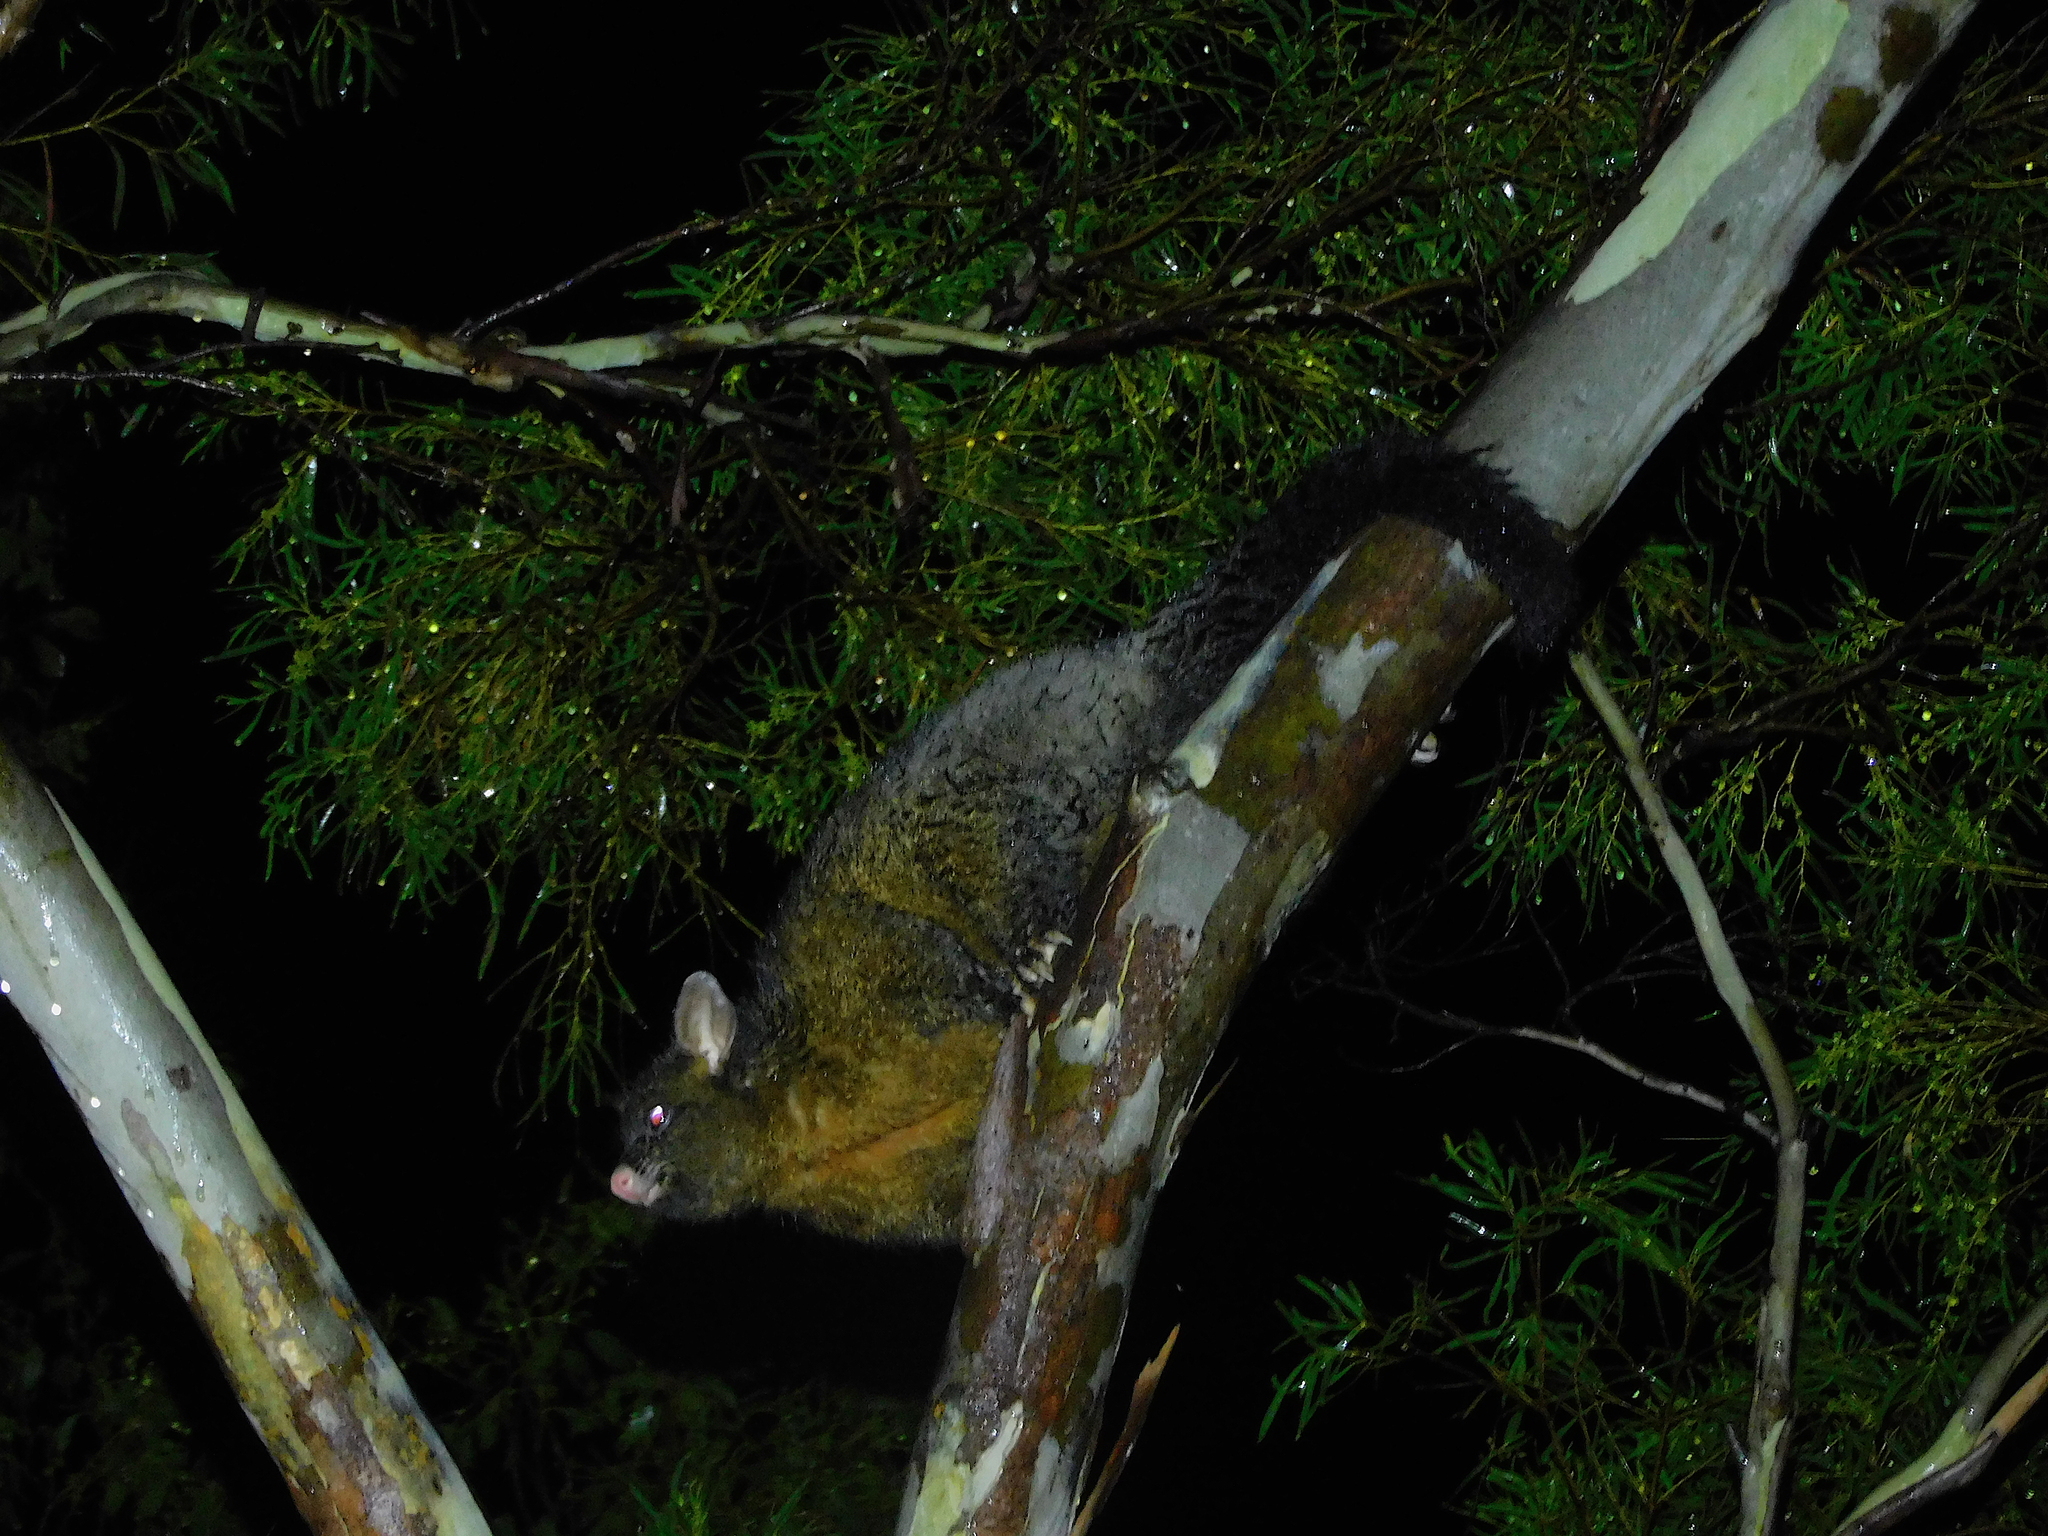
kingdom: Animalia
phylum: Chordata
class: Mammalia
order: Diprotodontia
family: Phalangeridae
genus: Trichosurus
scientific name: Trichosurus vulpecula
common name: Common brushtail
